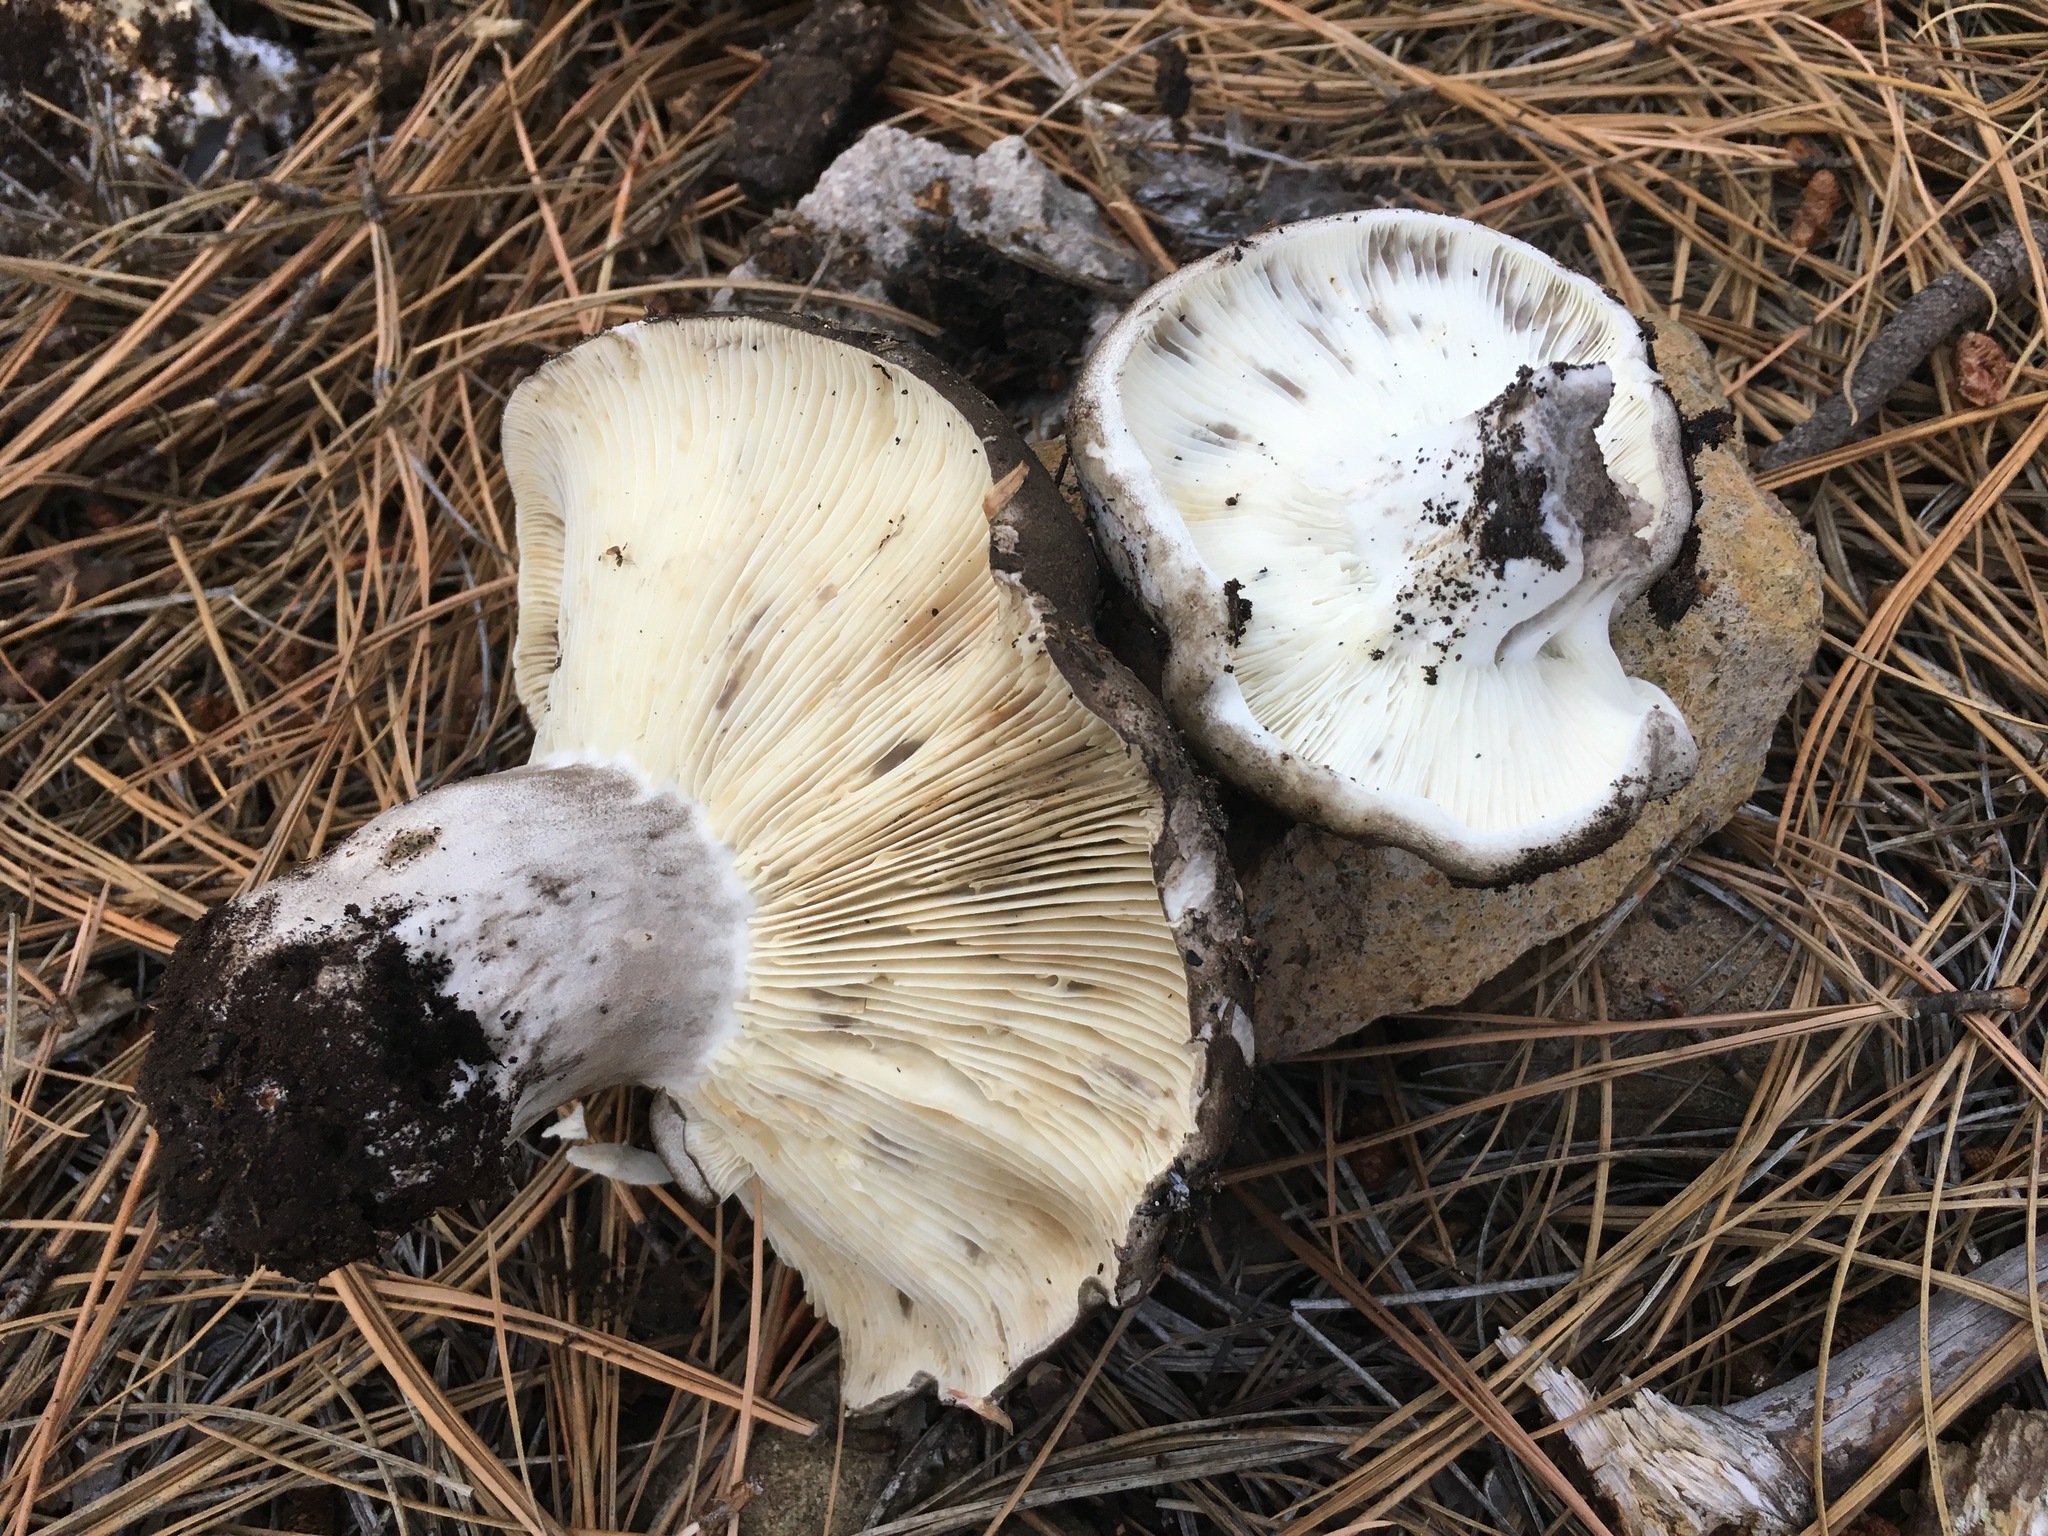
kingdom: Fungi
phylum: Basidiomycota
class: Agaricomycetes
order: Russulales
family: Russulaceae
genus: Russula
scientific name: Russula albonigra
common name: Menthol brittlegill
